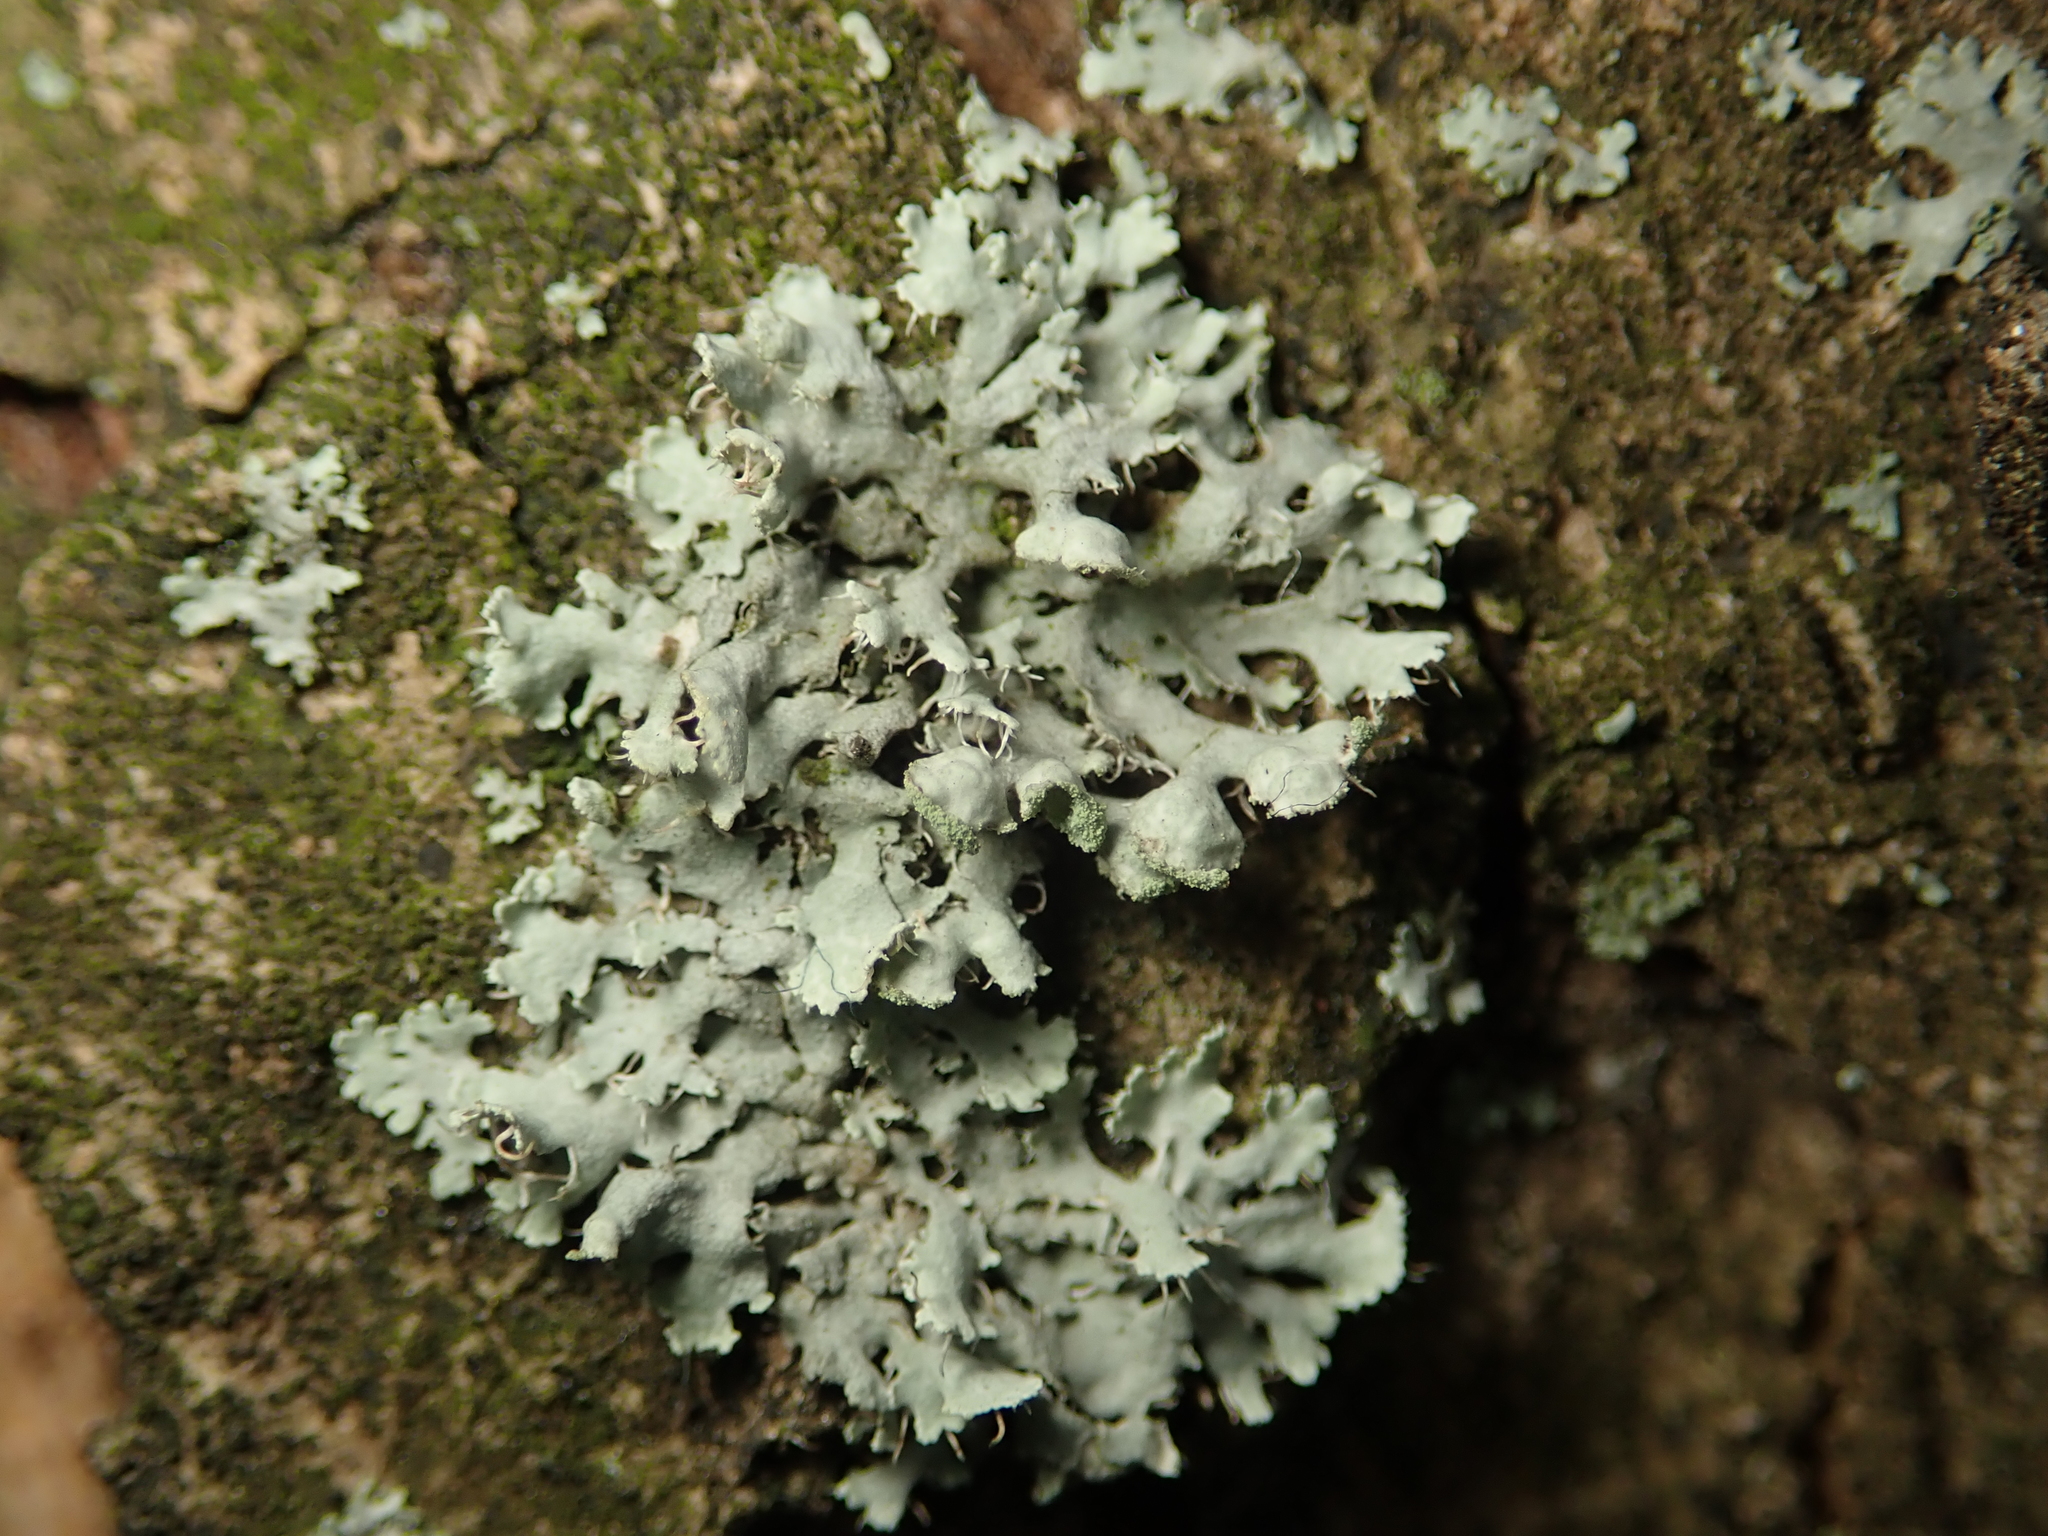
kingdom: Fungi
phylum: Ascomycota
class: Lecanoromycetes
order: Caliciales
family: Physciaceae
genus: Physcia
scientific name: Physcia adscendens
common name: Hooded rosette lichen
